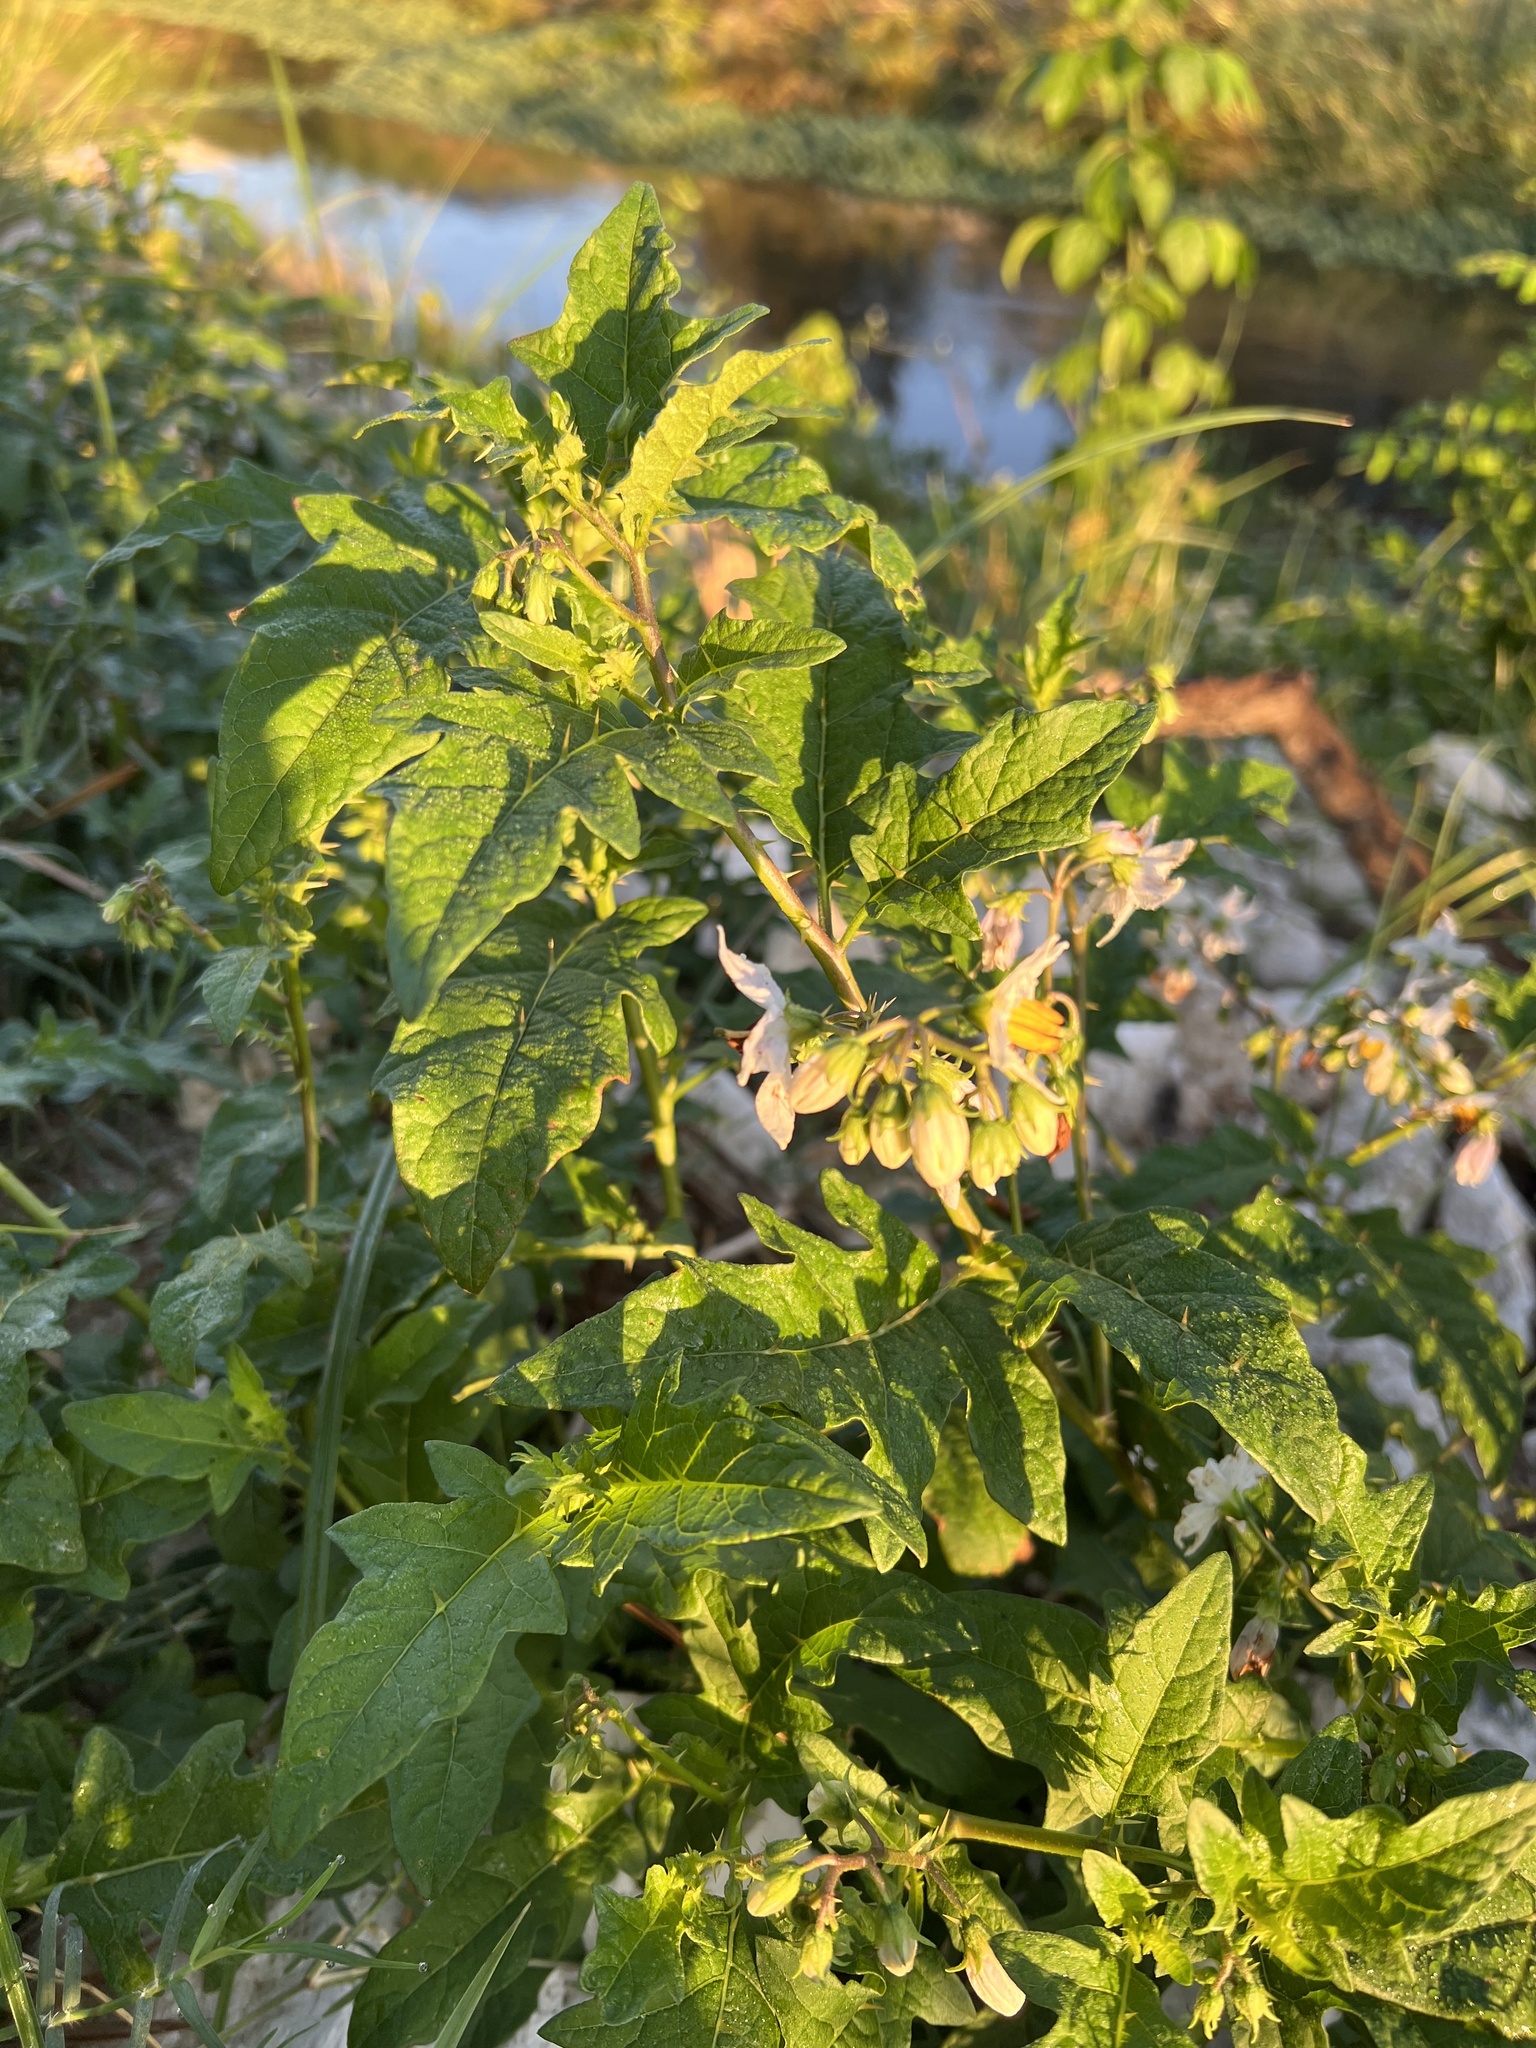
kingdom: Plantae
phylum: Tracheophyta
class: Magnoliopsida
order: Solanales
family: Solanaceae
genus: Solanum
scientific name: Solanum carolinense
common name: Horse-nettle
